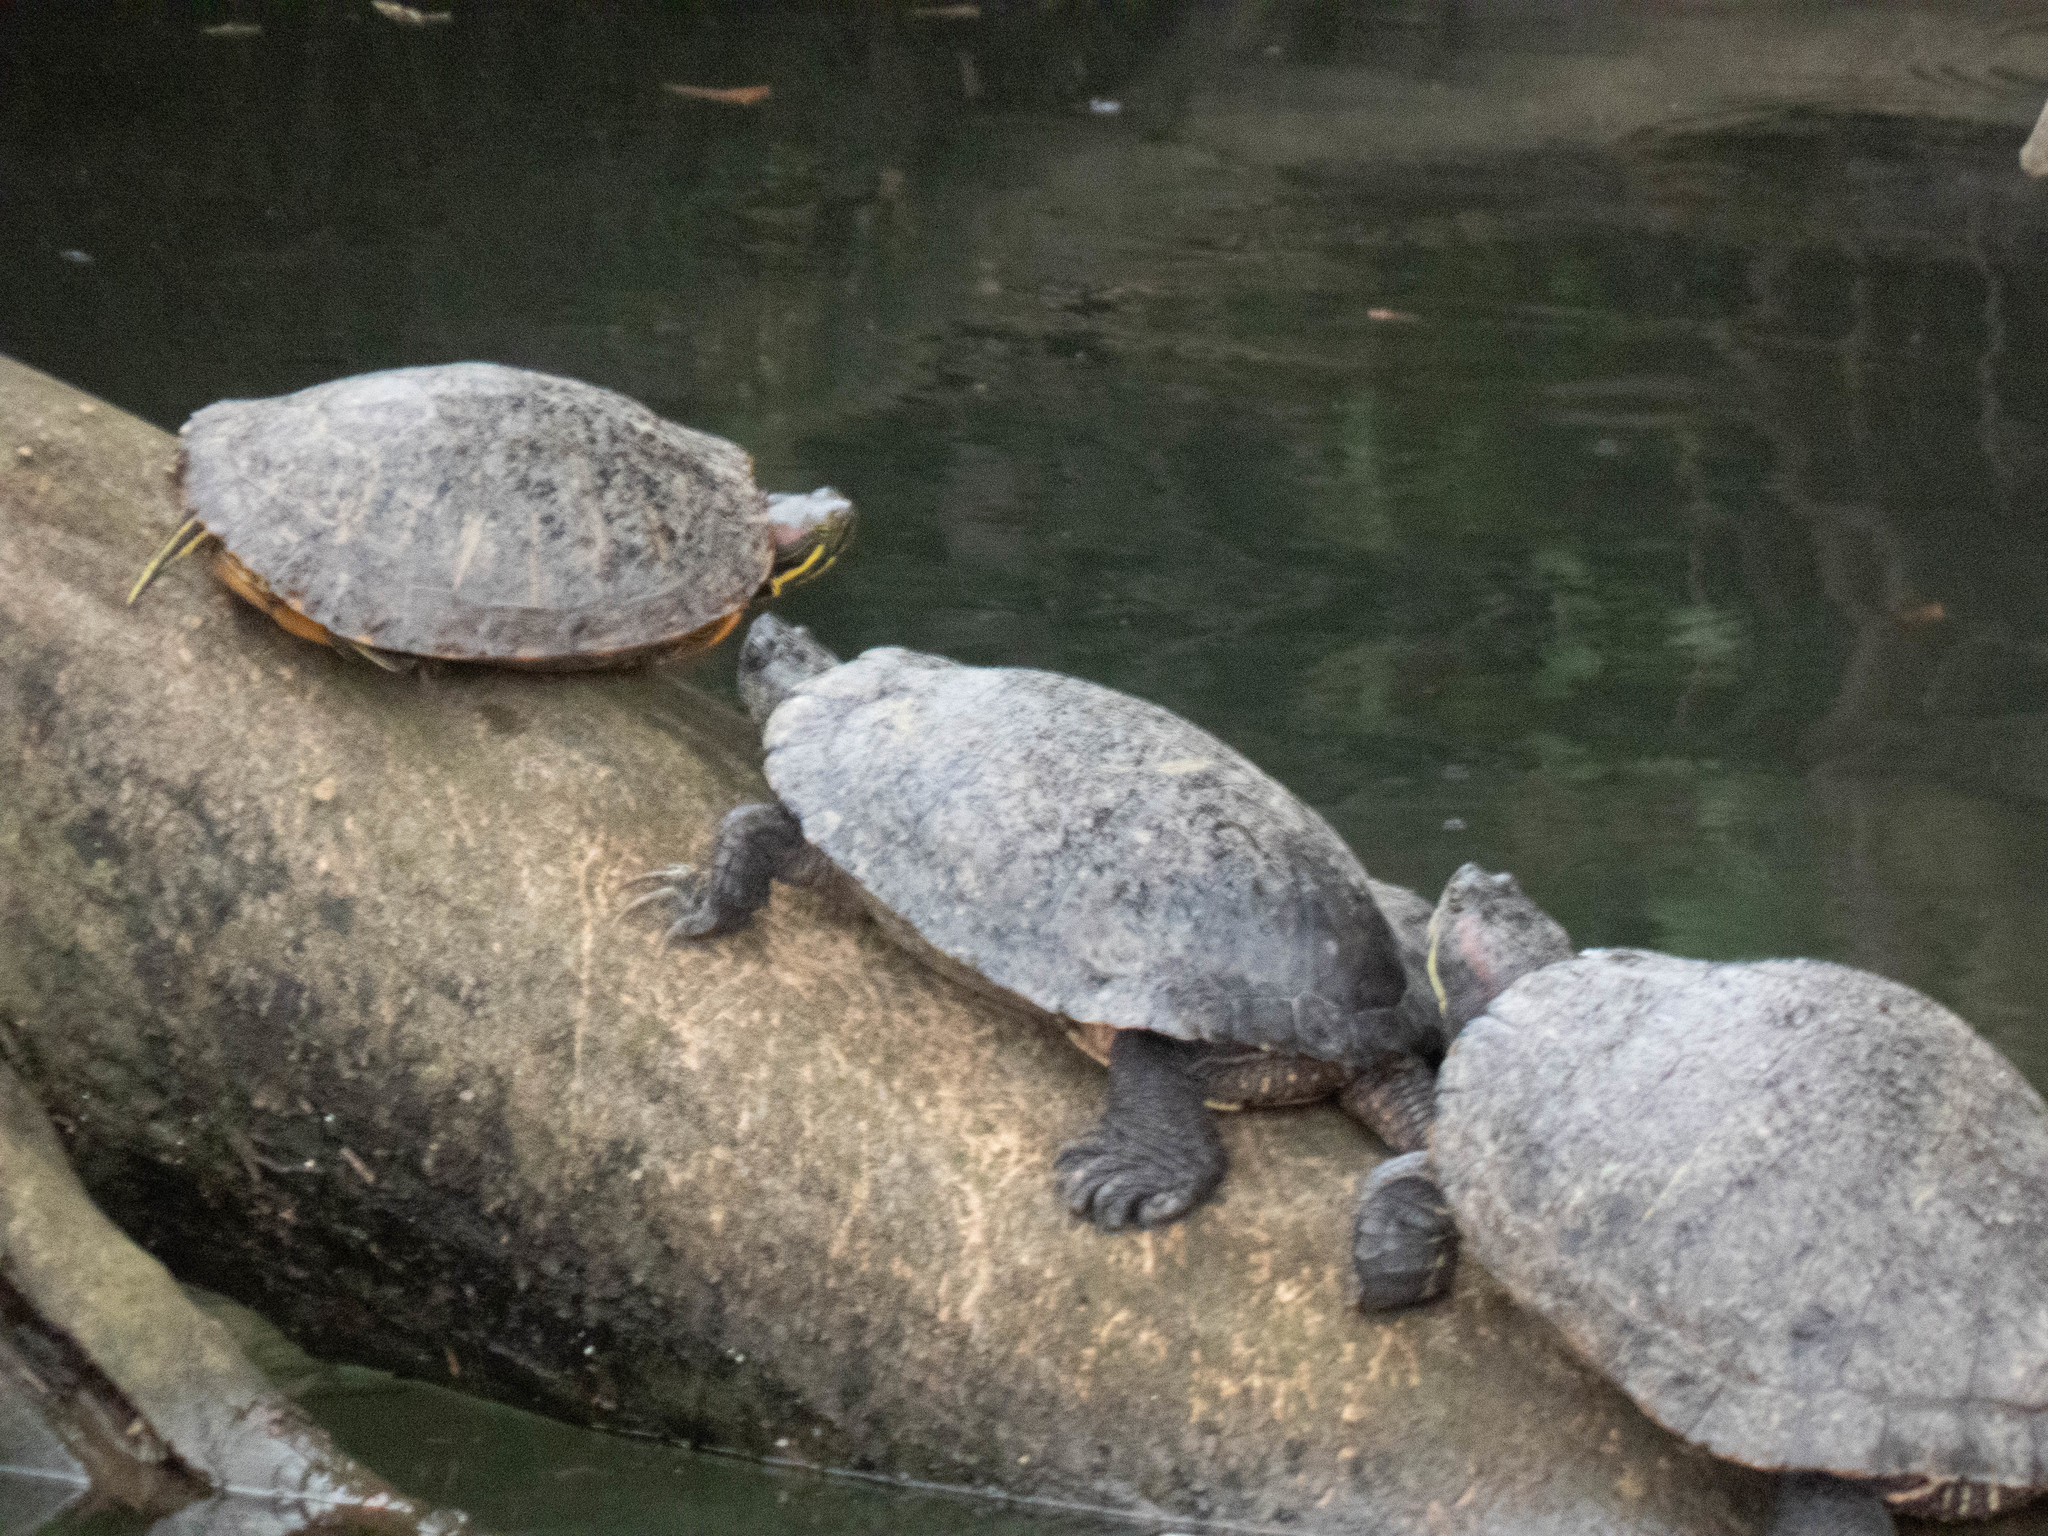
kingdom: Animalia
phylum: Chordata
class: Testudines
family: Emydidae
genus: Trachemys
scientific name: Trachemys scripta
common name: Slider
